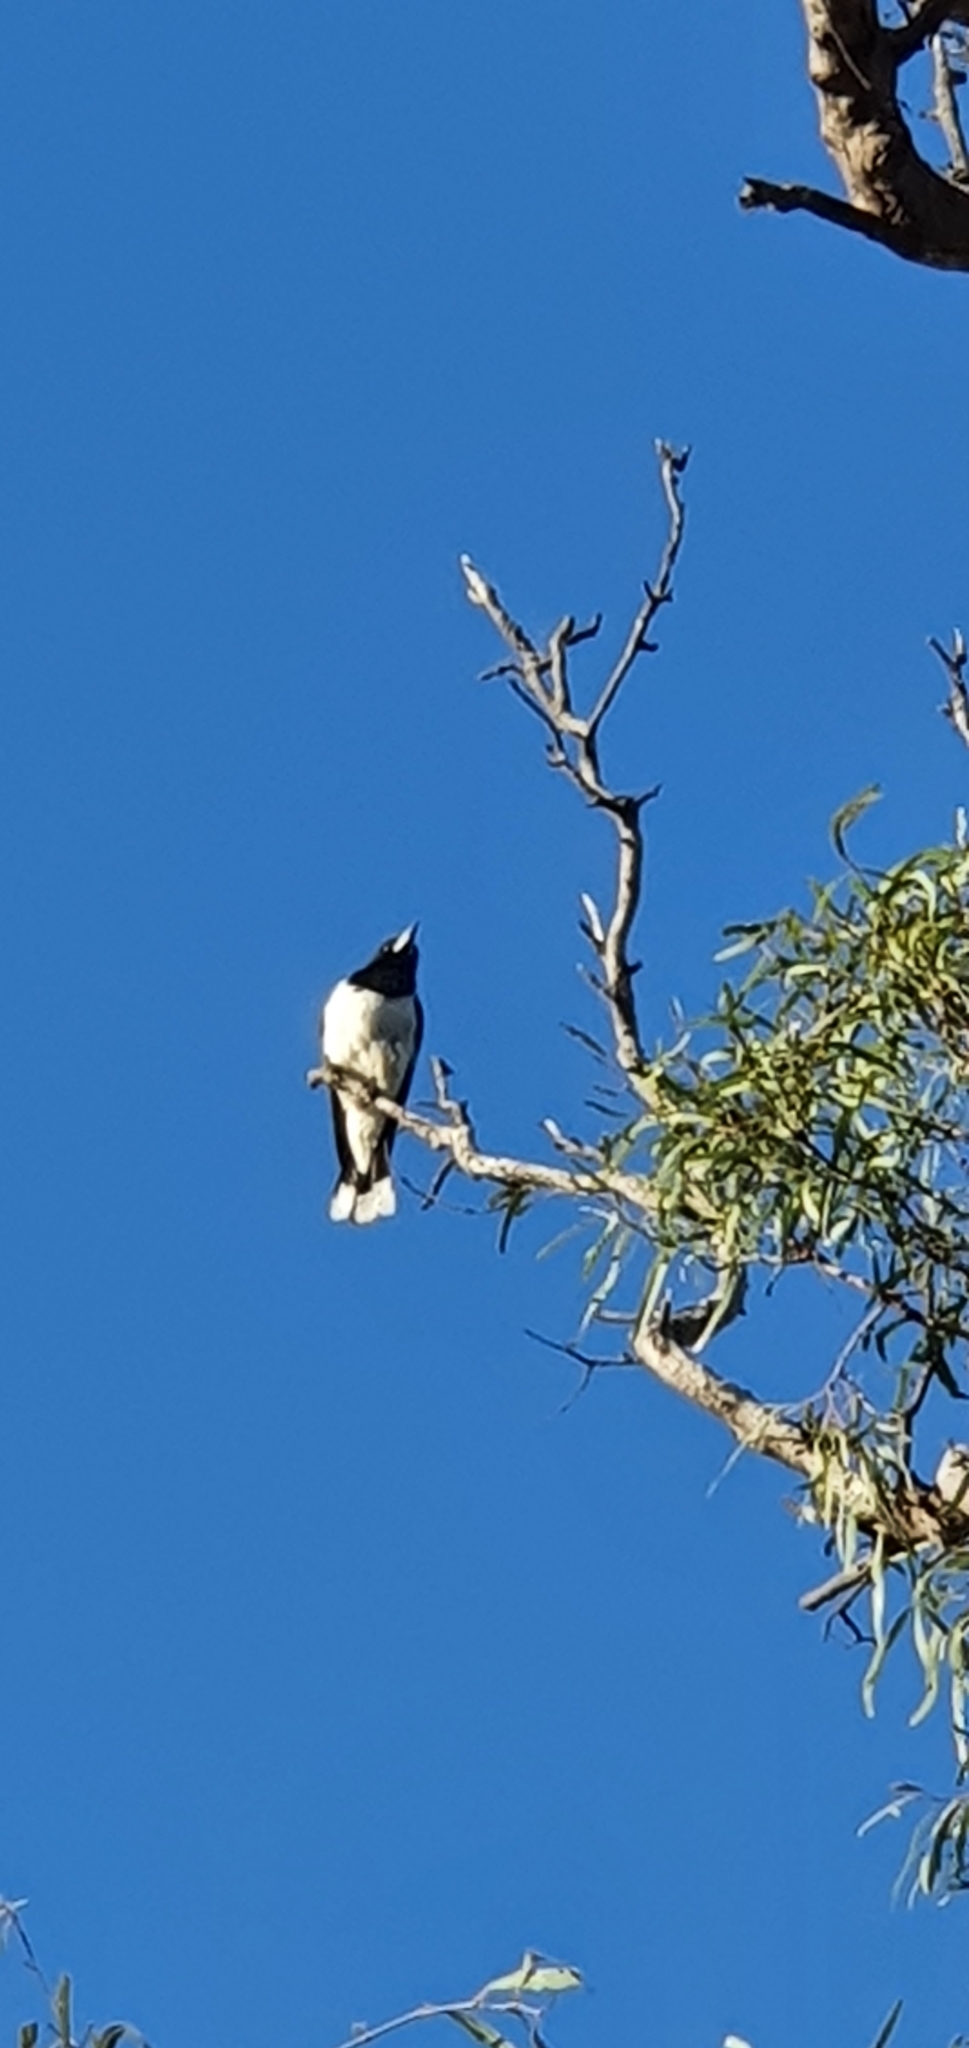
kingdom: Animalia
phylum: Chordata
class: Aves
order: Passeriformes
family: Cracticidae
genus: Cracticus
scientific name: Cracticus nigrogularis
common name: Pied butcherbird
